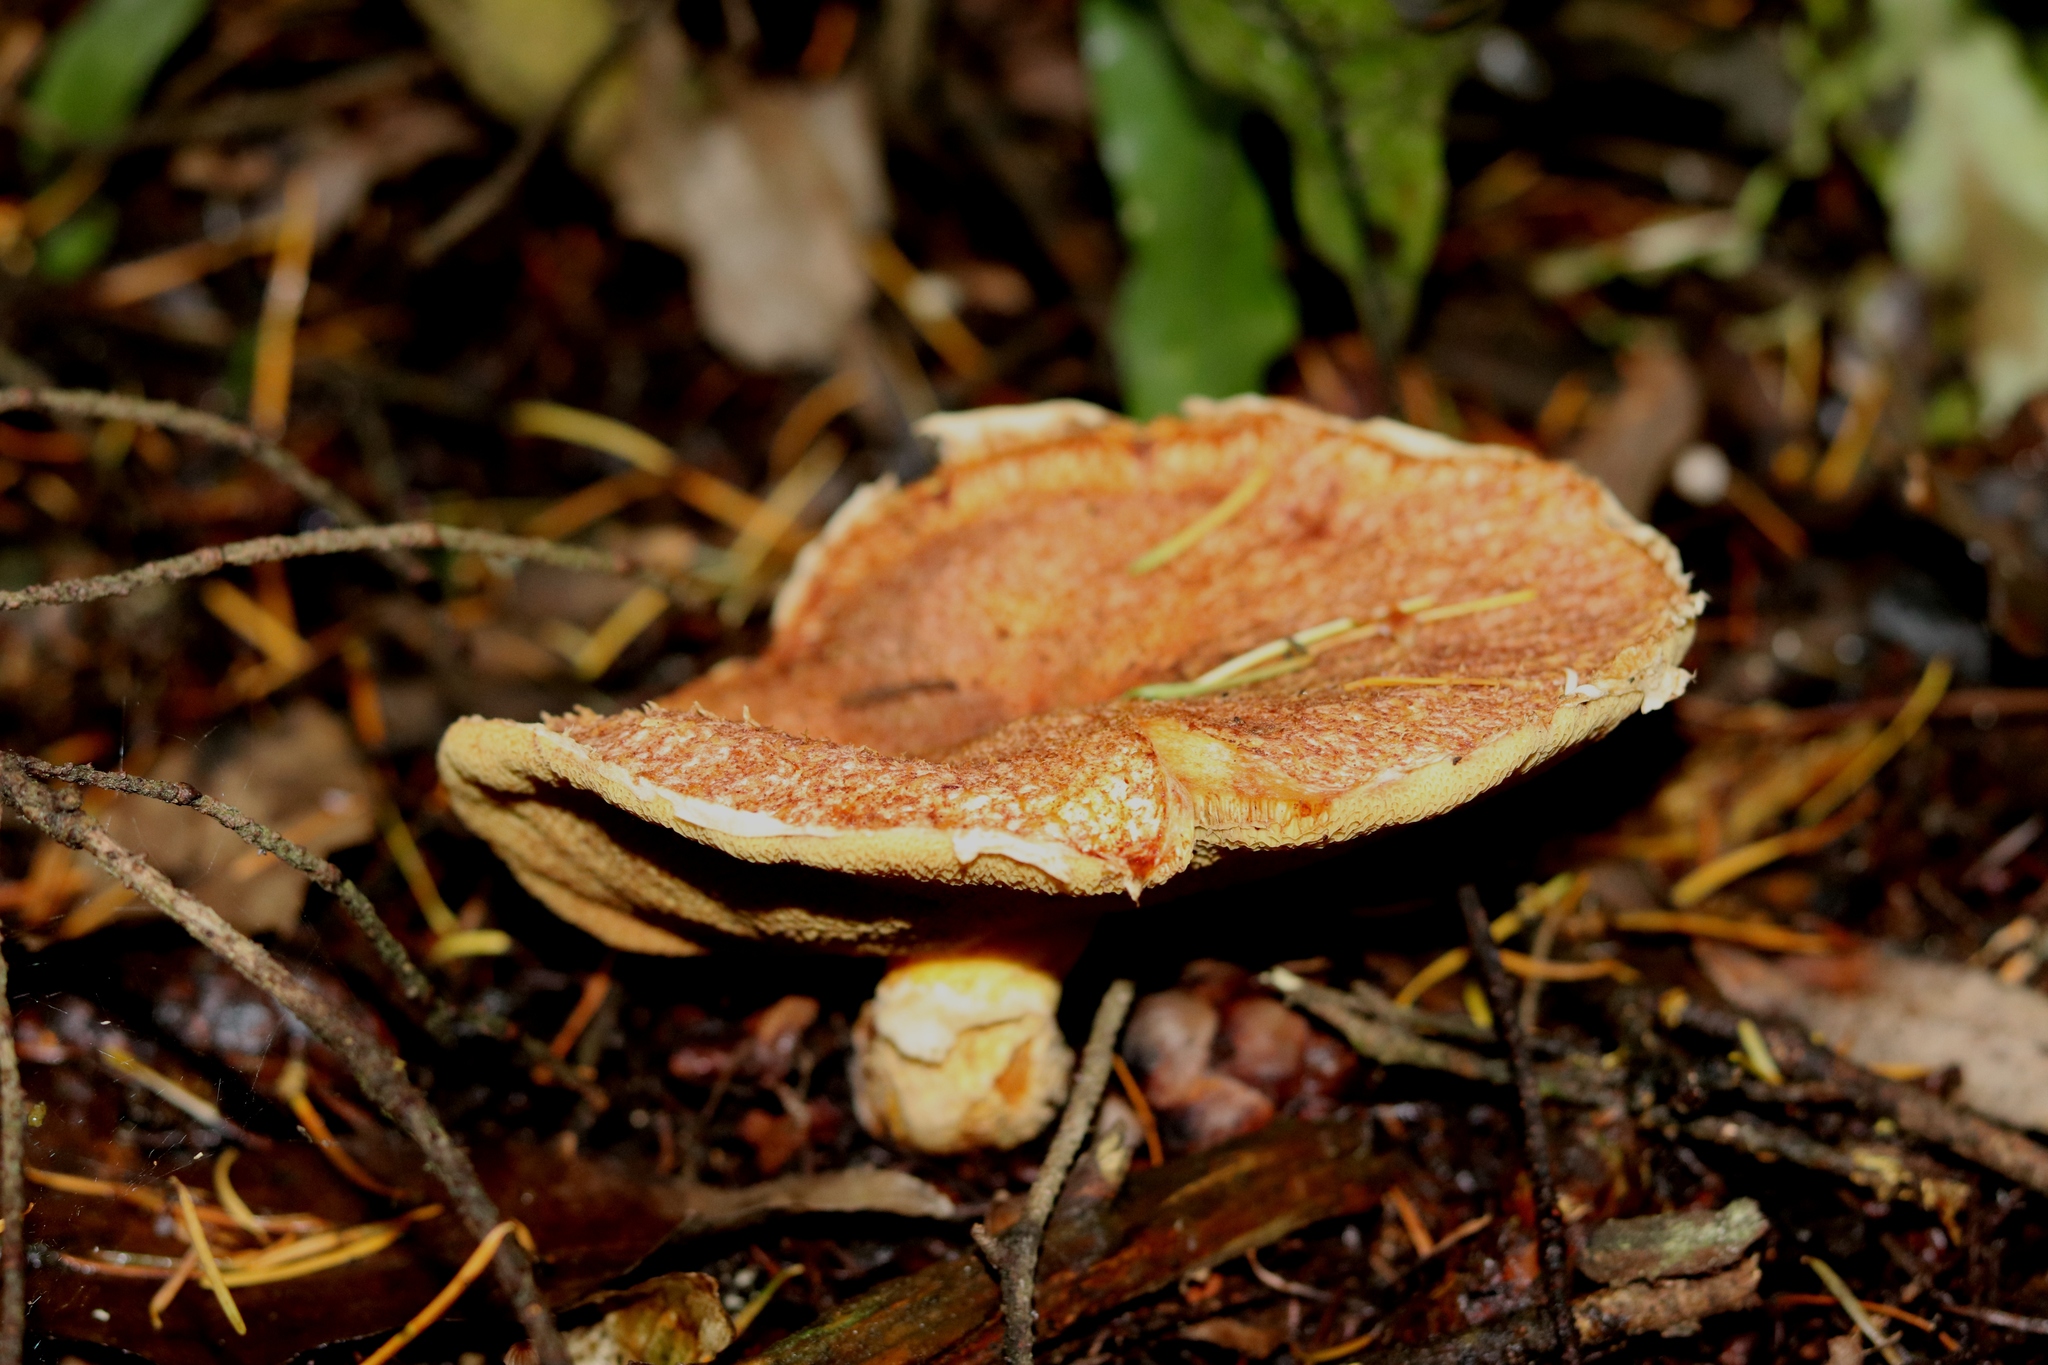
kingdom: Fungi
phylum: Basidiomycota
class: Agaricomycetes
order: Boletales
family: Suillaceae
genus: Suillus
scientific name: Suillus lakei
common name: Western painted suillus
